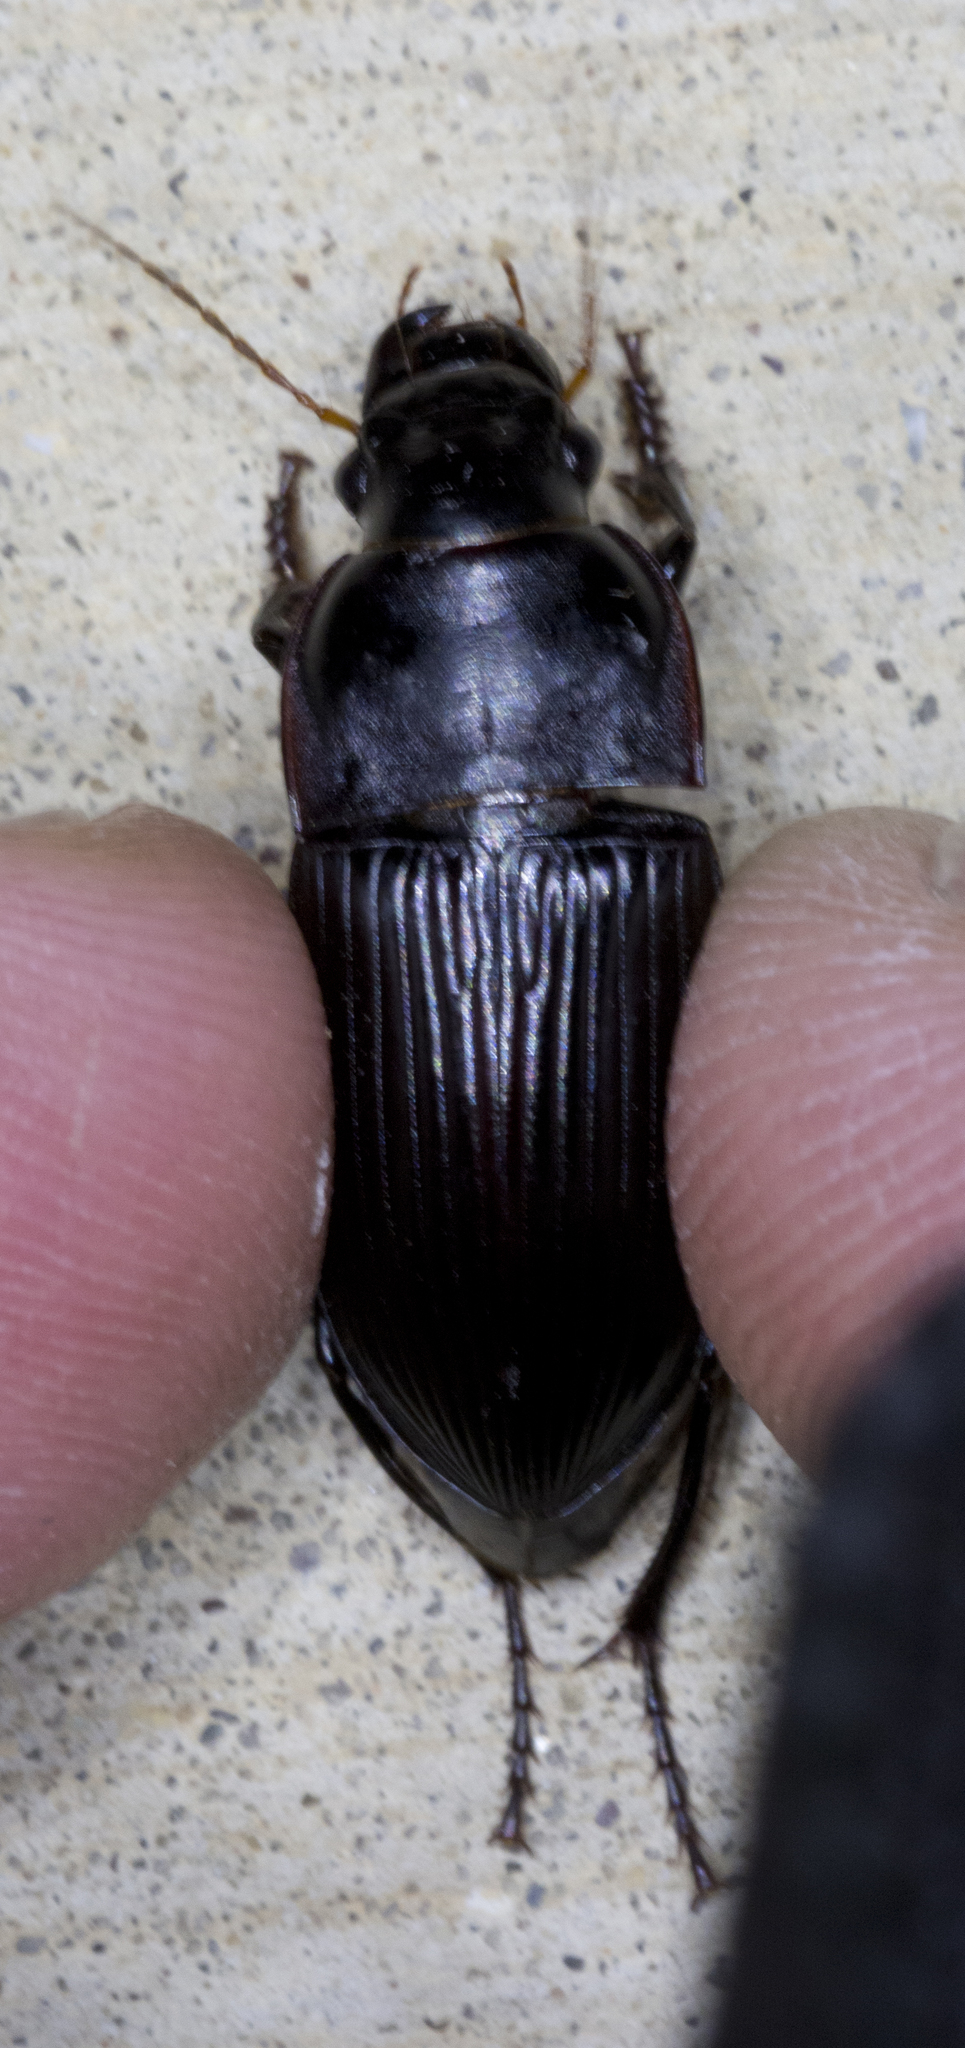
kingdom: Animalia
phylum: Arthropoda
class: Insecta
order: Coleoptera
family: Carabidae
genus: Harpalus
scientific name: Harpalus
